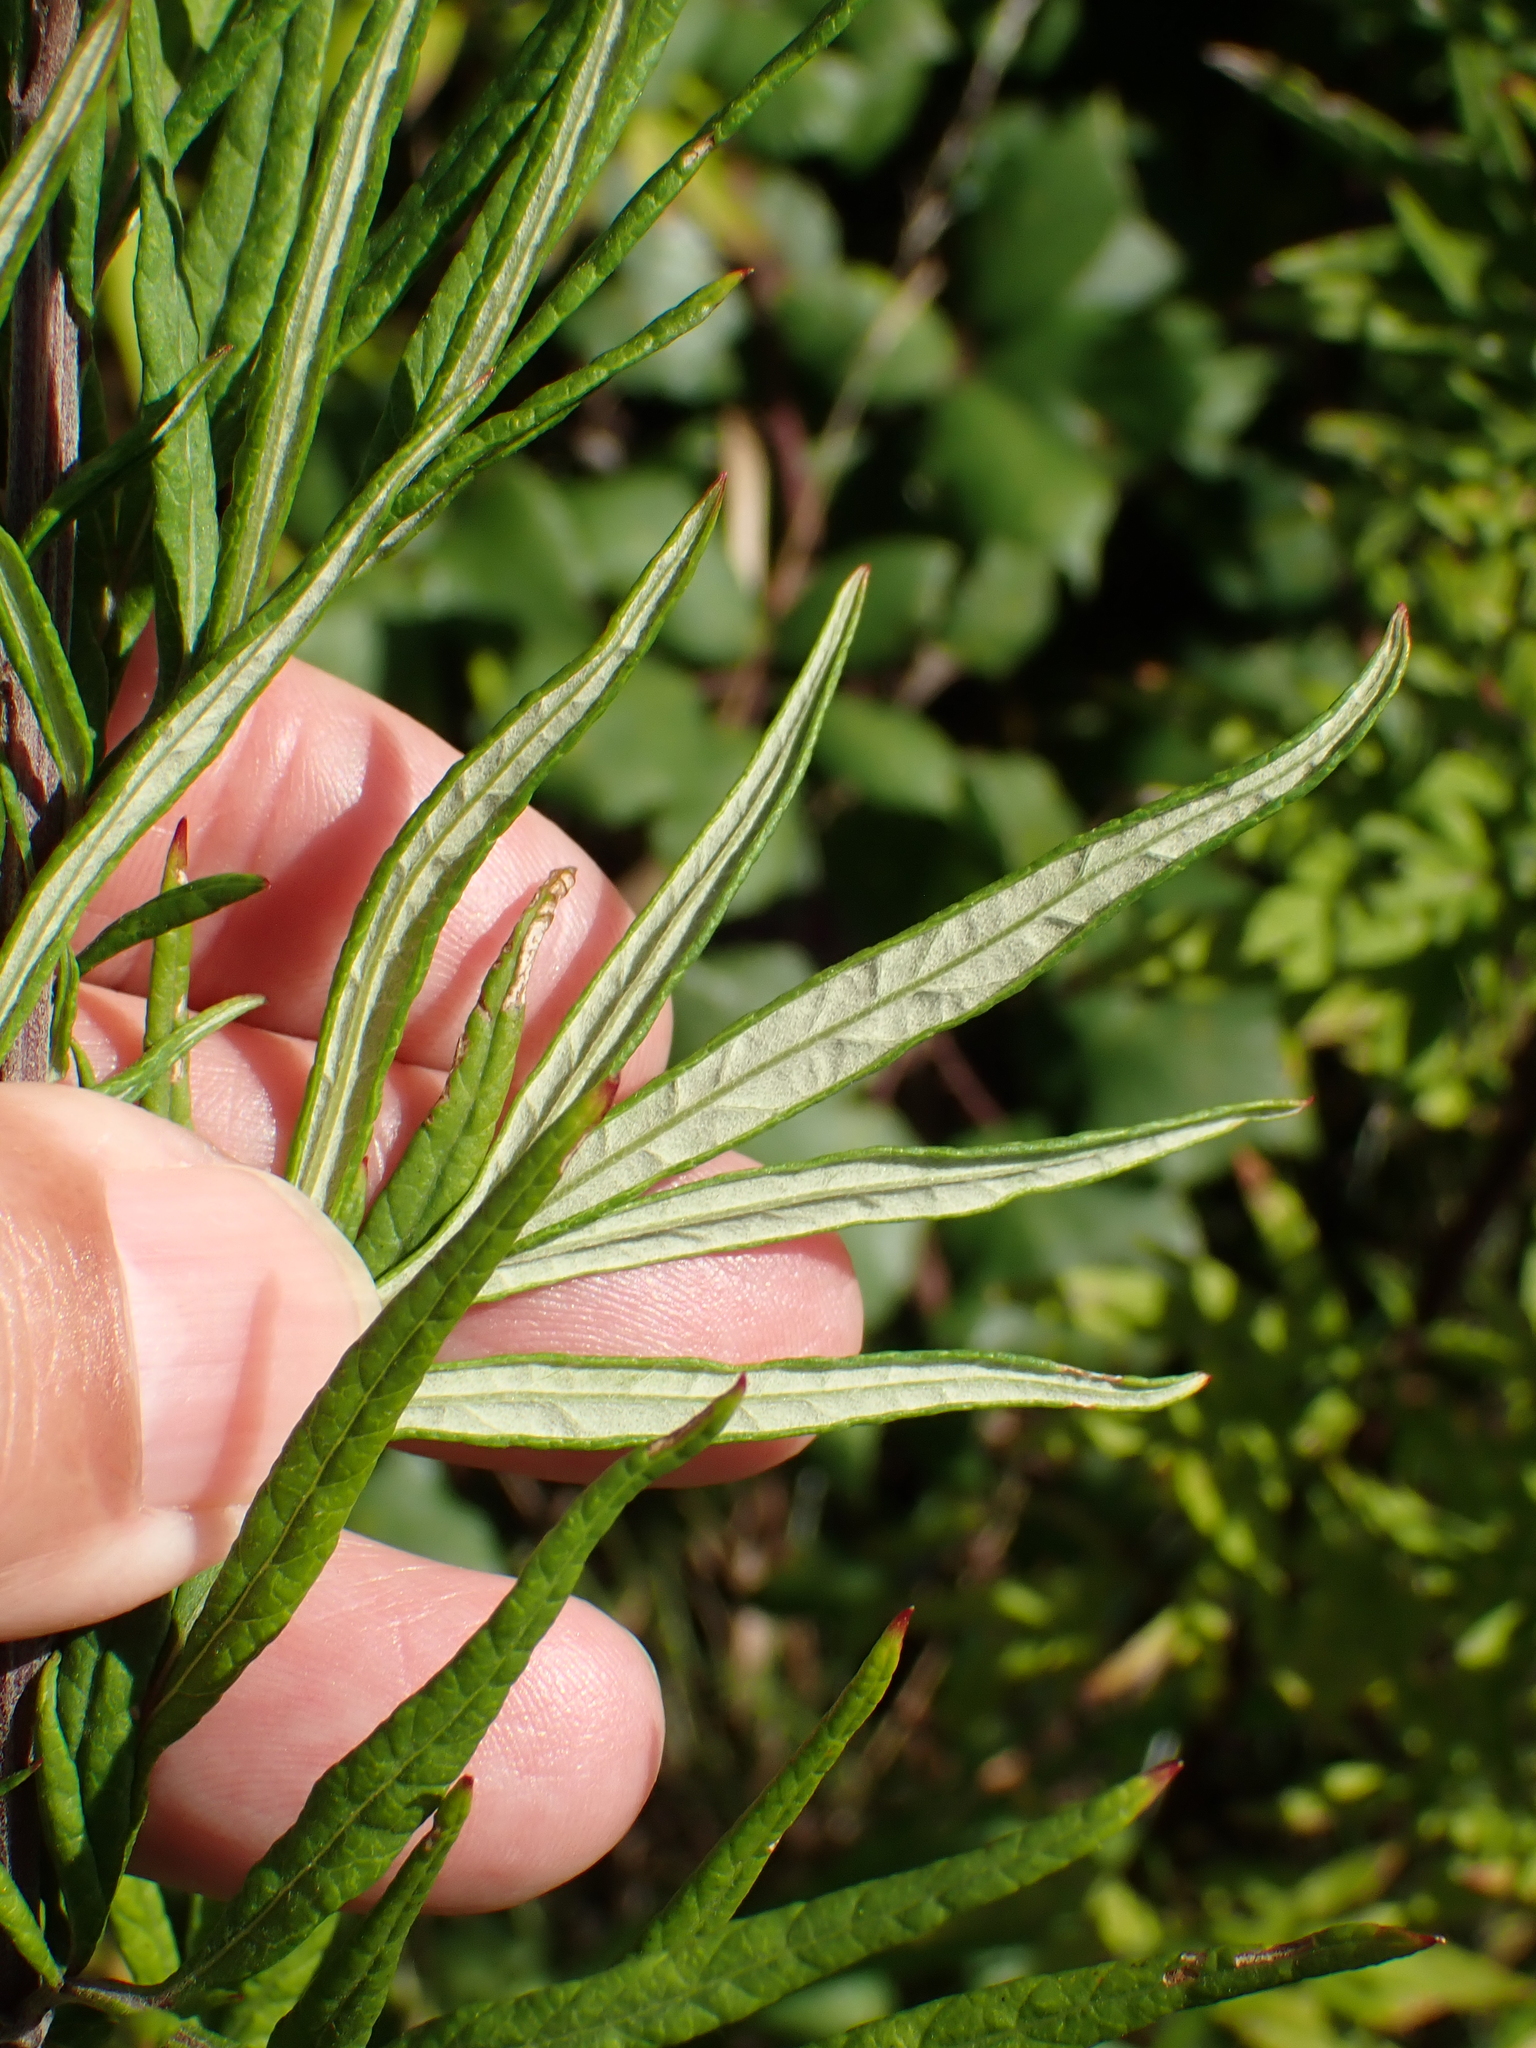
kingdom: Plantae
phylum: Tracheophyta
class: Magnoliopsida
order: Asterales
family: Asteraceae
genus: Artemisia
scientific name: Artemisia verlotiorum
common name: Chinese mugwort
